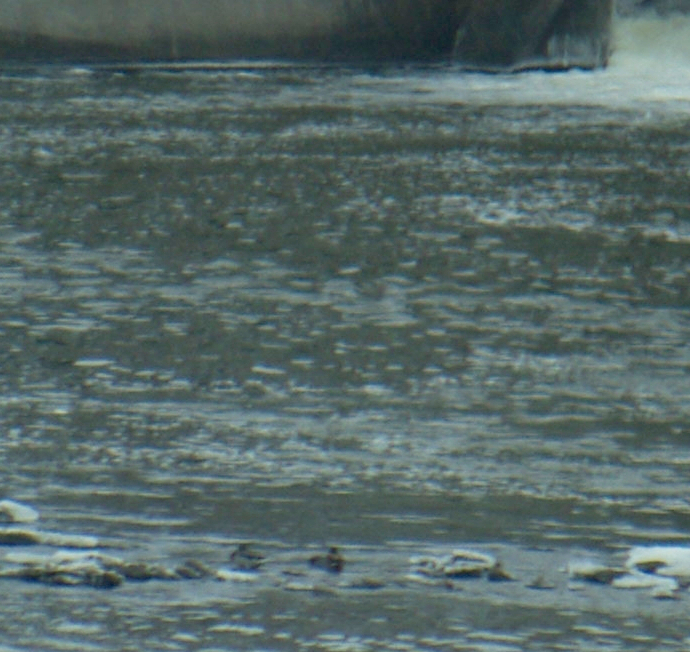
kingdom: Animalia
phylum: Chordata
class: Aves
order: Anseriformes
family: Anatidae
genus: Anas
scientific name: Anas platyrhynchos
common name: Mallard
